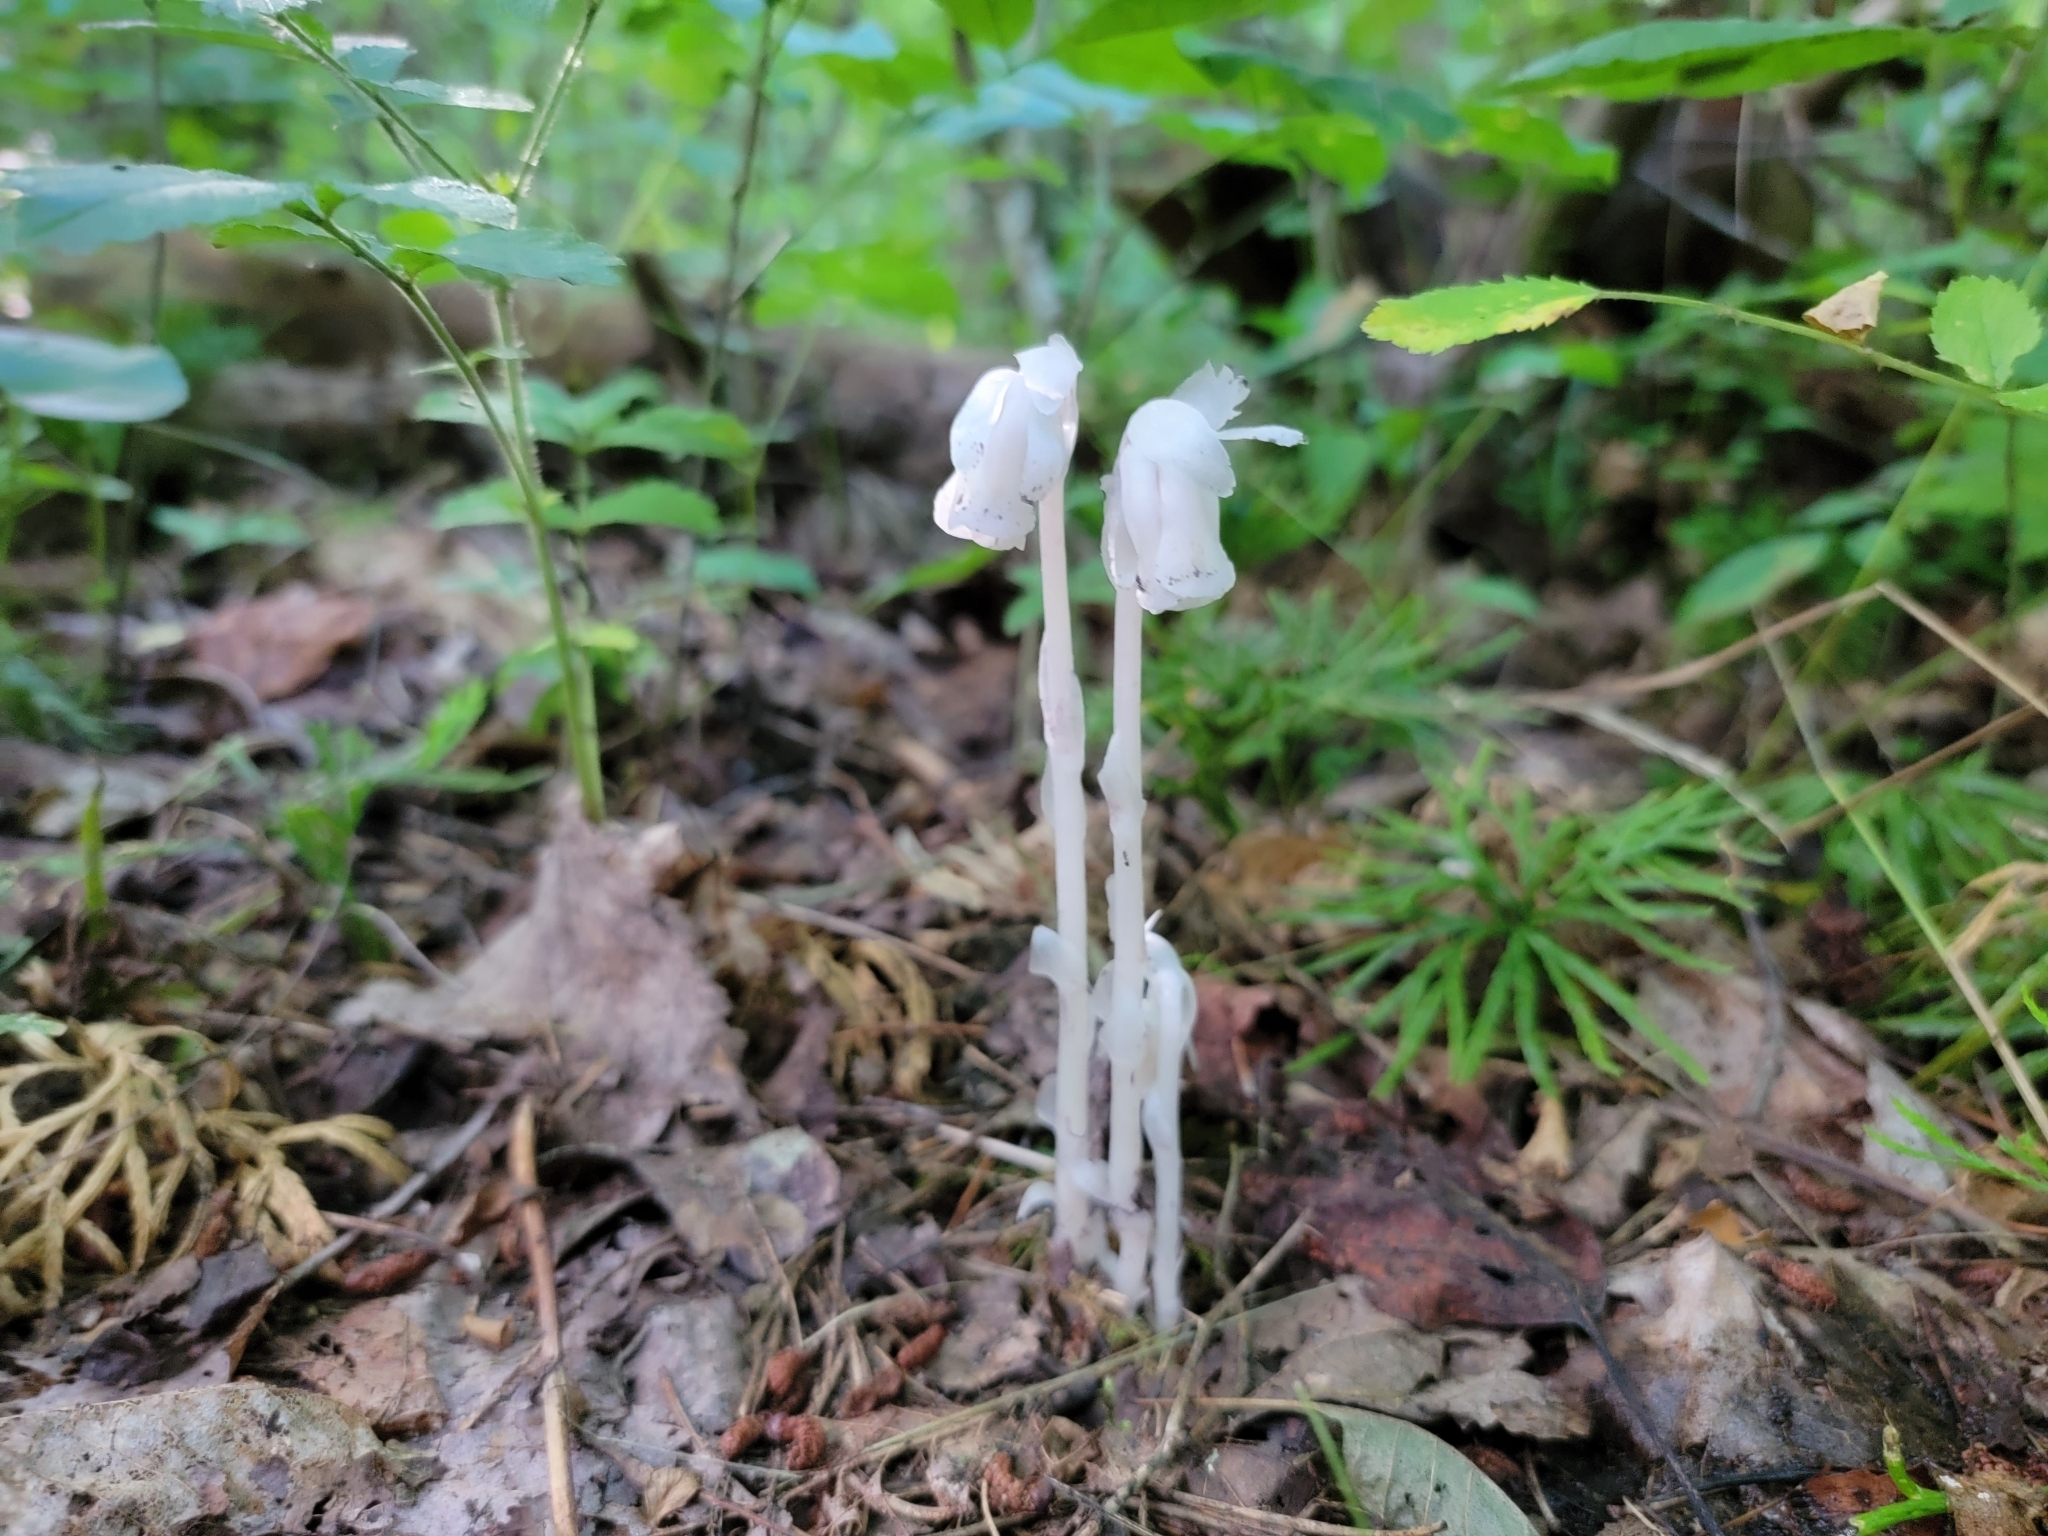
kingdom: Plantae
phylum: Tracheophyta
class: Magnoliopsida
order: Ericales
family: Ericaceae
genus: Monotropa
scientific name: Monotropa uniflora
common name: Convulsion root
